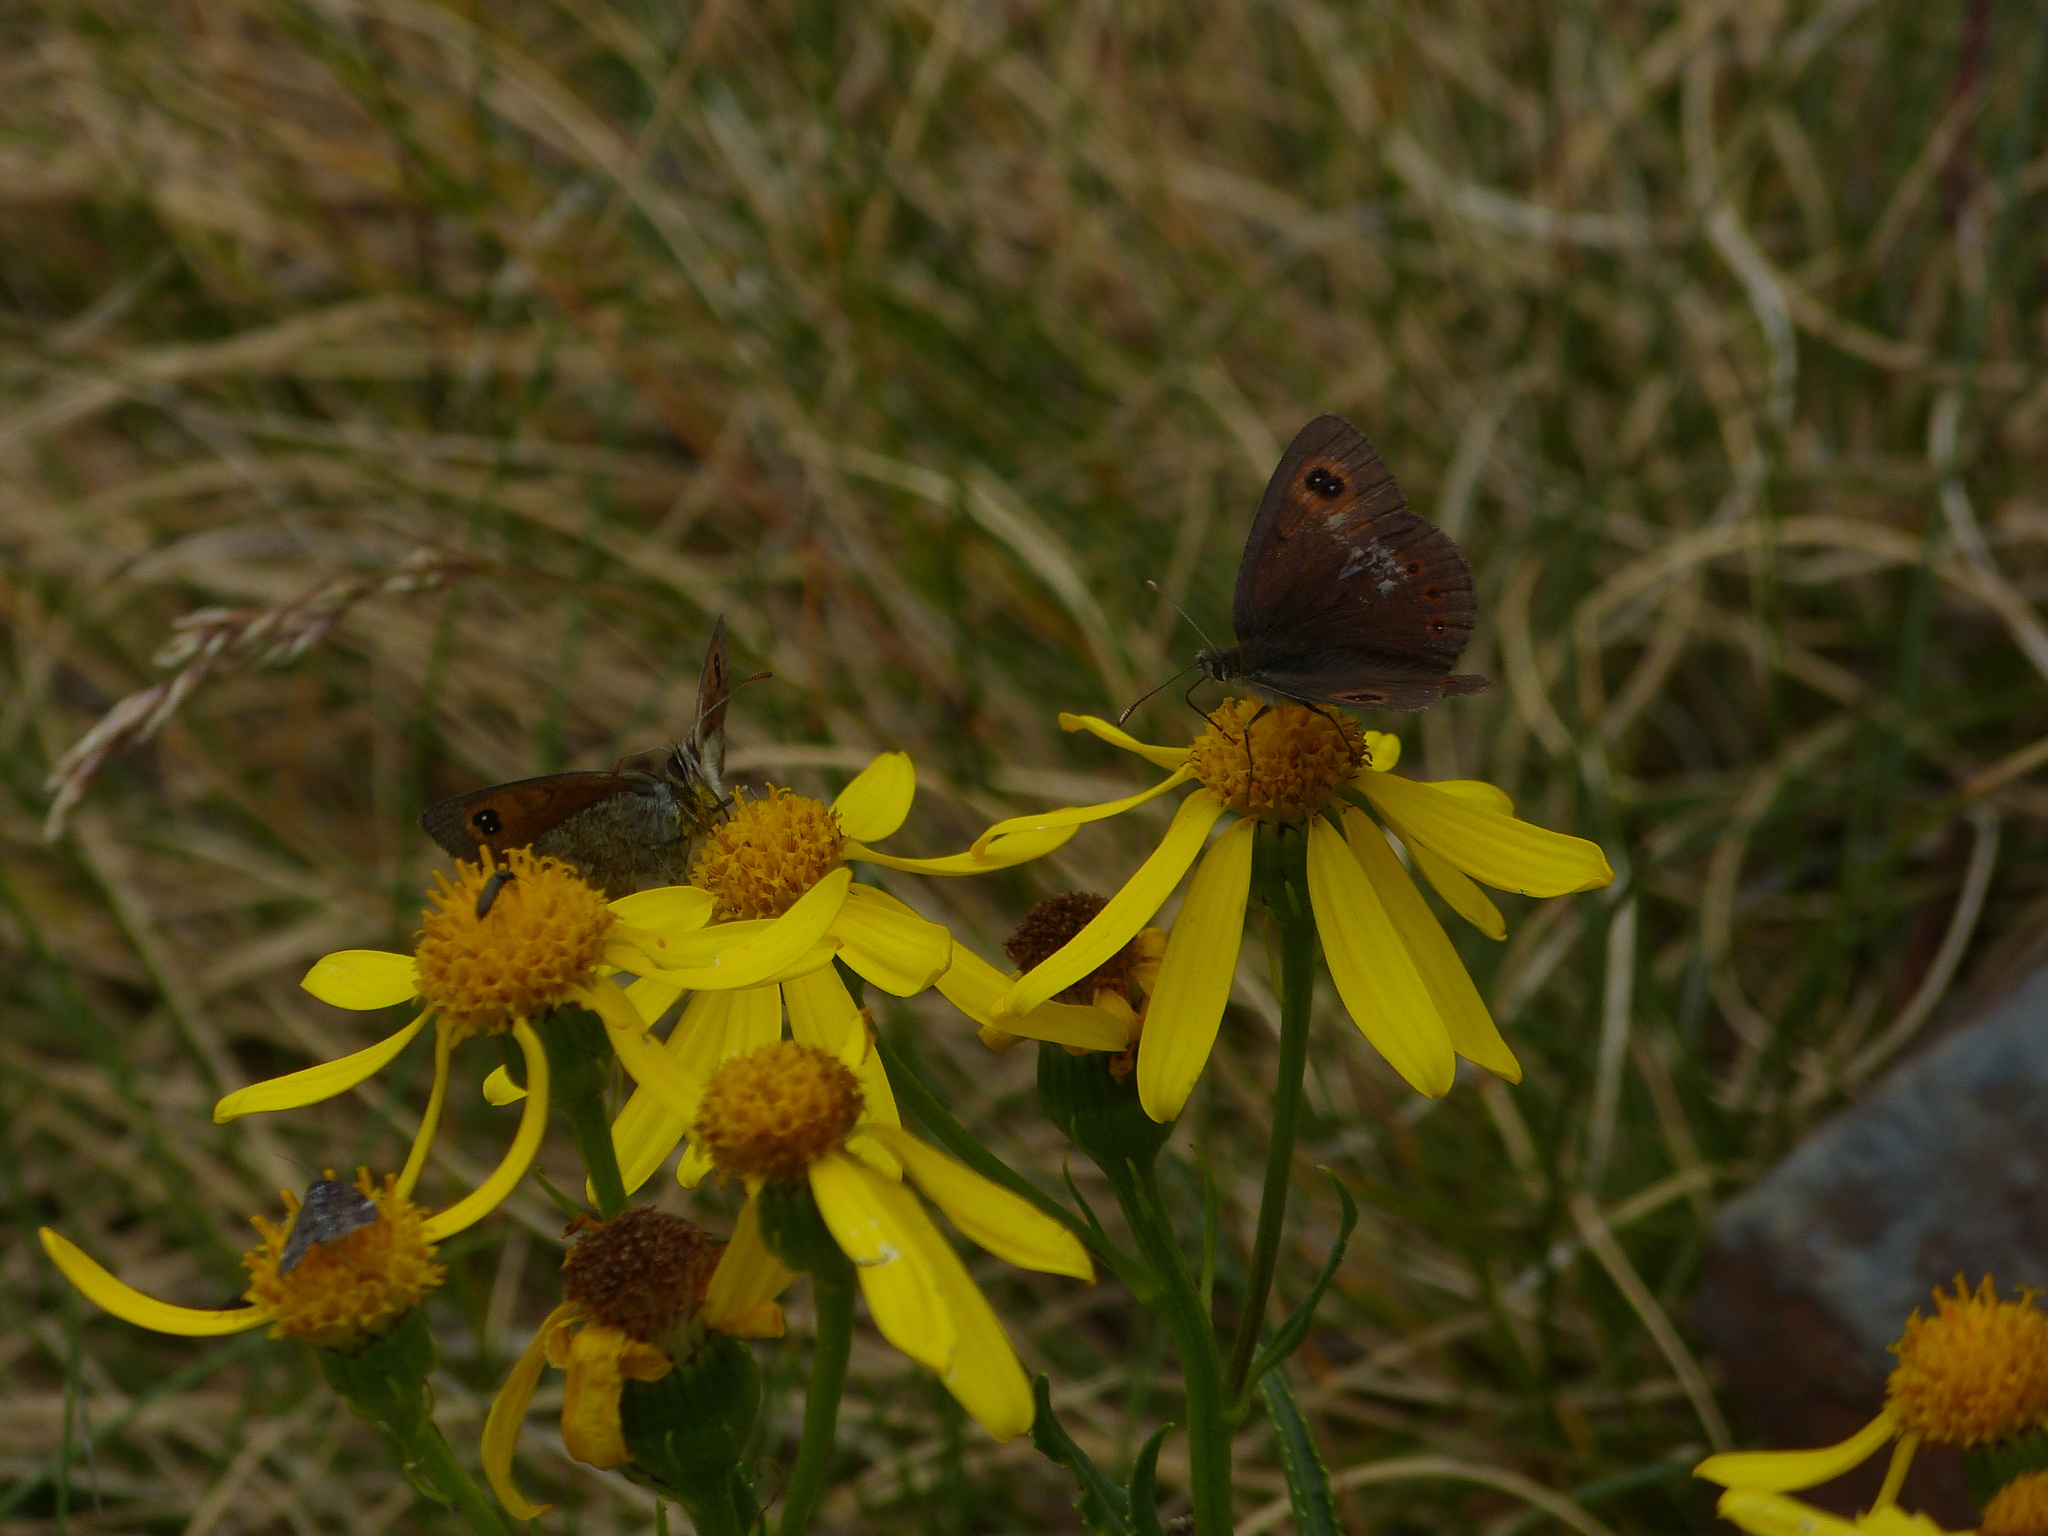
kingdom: Animalia
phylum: Arthropoda
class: Insecta
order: Lepidoptera
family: Nymphalidae
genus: Erebia
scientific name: Erebia cassioides
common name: Common brassy ringlet
